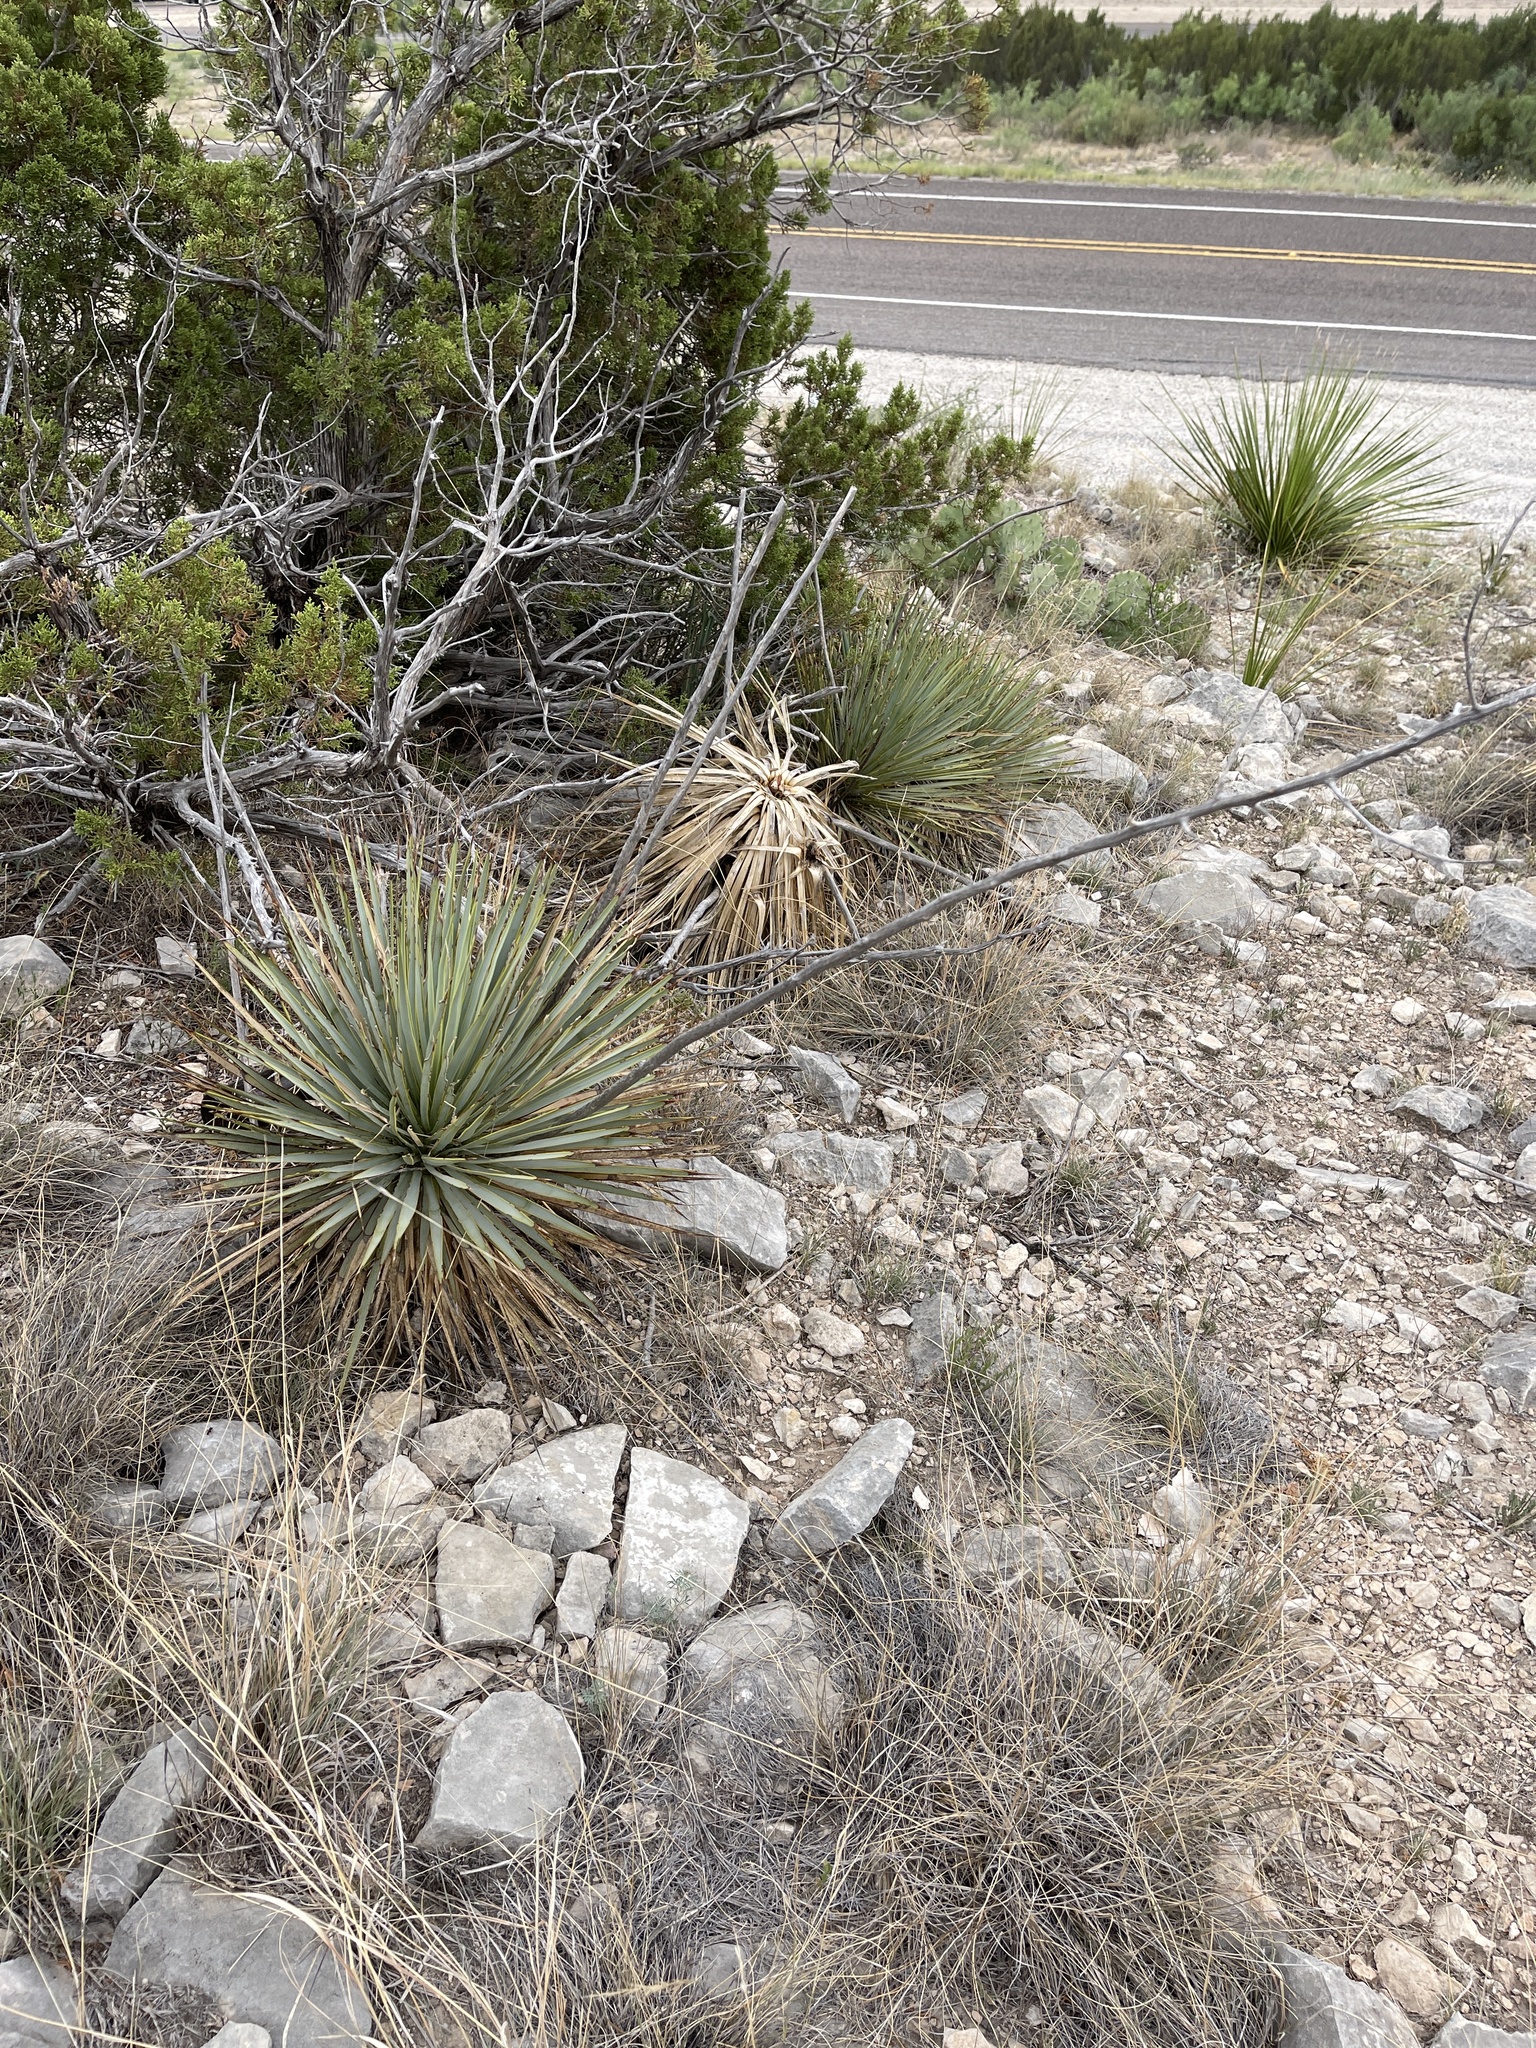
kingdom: Plantae
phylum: Tracheophyta
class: Liliopsida
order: Asparagales
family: Asparagaceae
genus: Yucca
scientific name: Yucca thompsoniana
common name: Trans-pecos yucca
